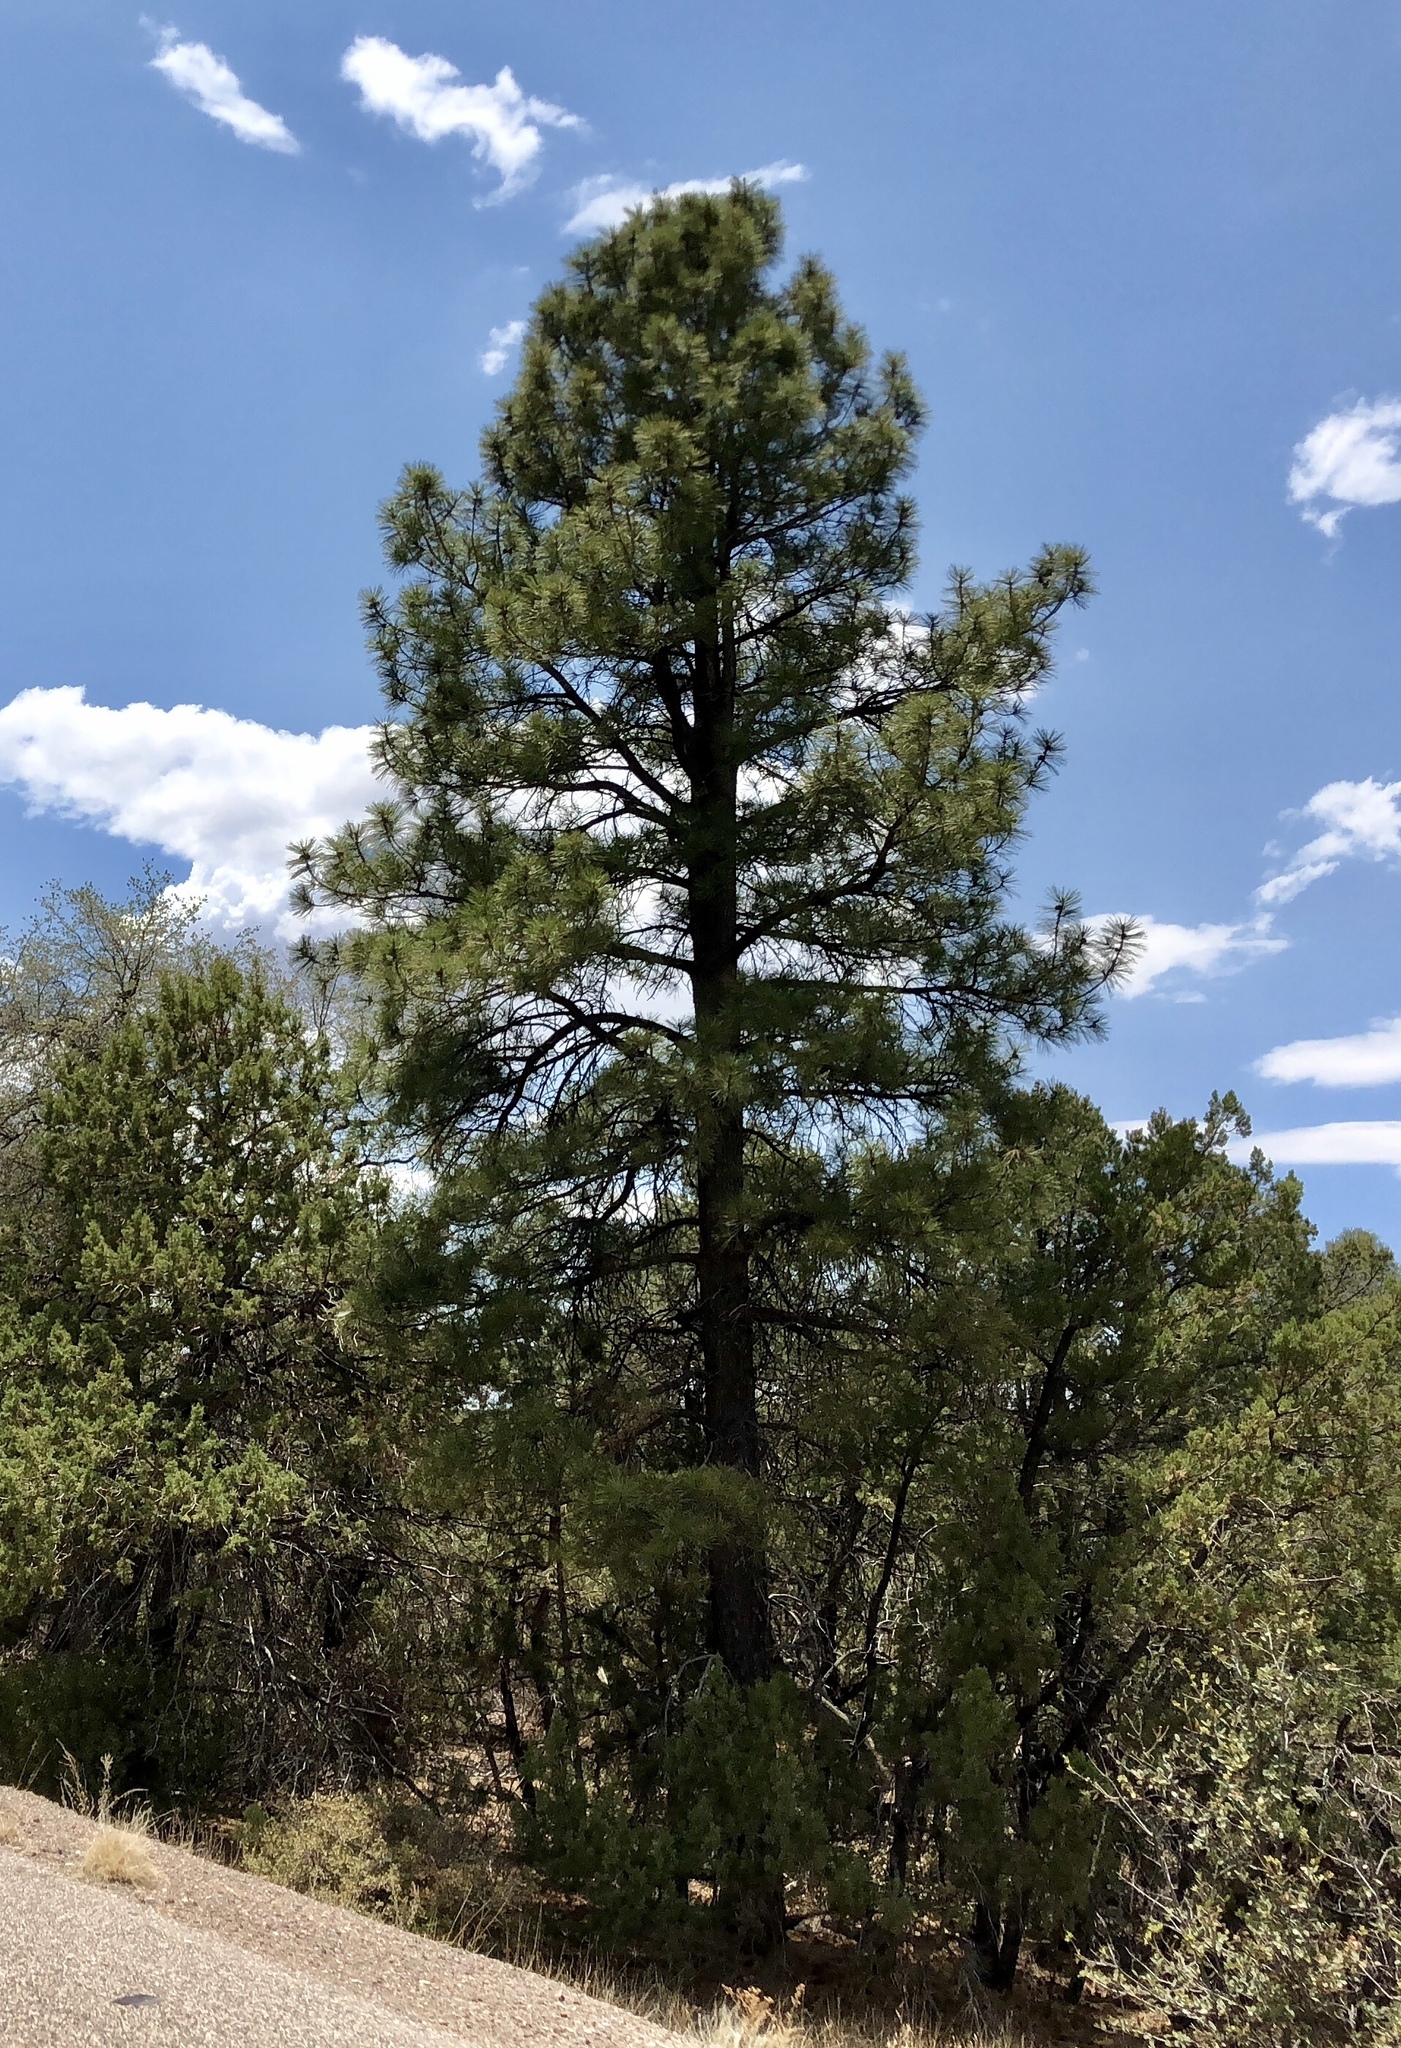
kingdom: Plantae
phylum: Tracheophyta
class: Pinopsida
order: Pinales
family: Pinaceae
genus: Pinus
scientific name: Pinus ponderosa
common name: Western yellow-pine
